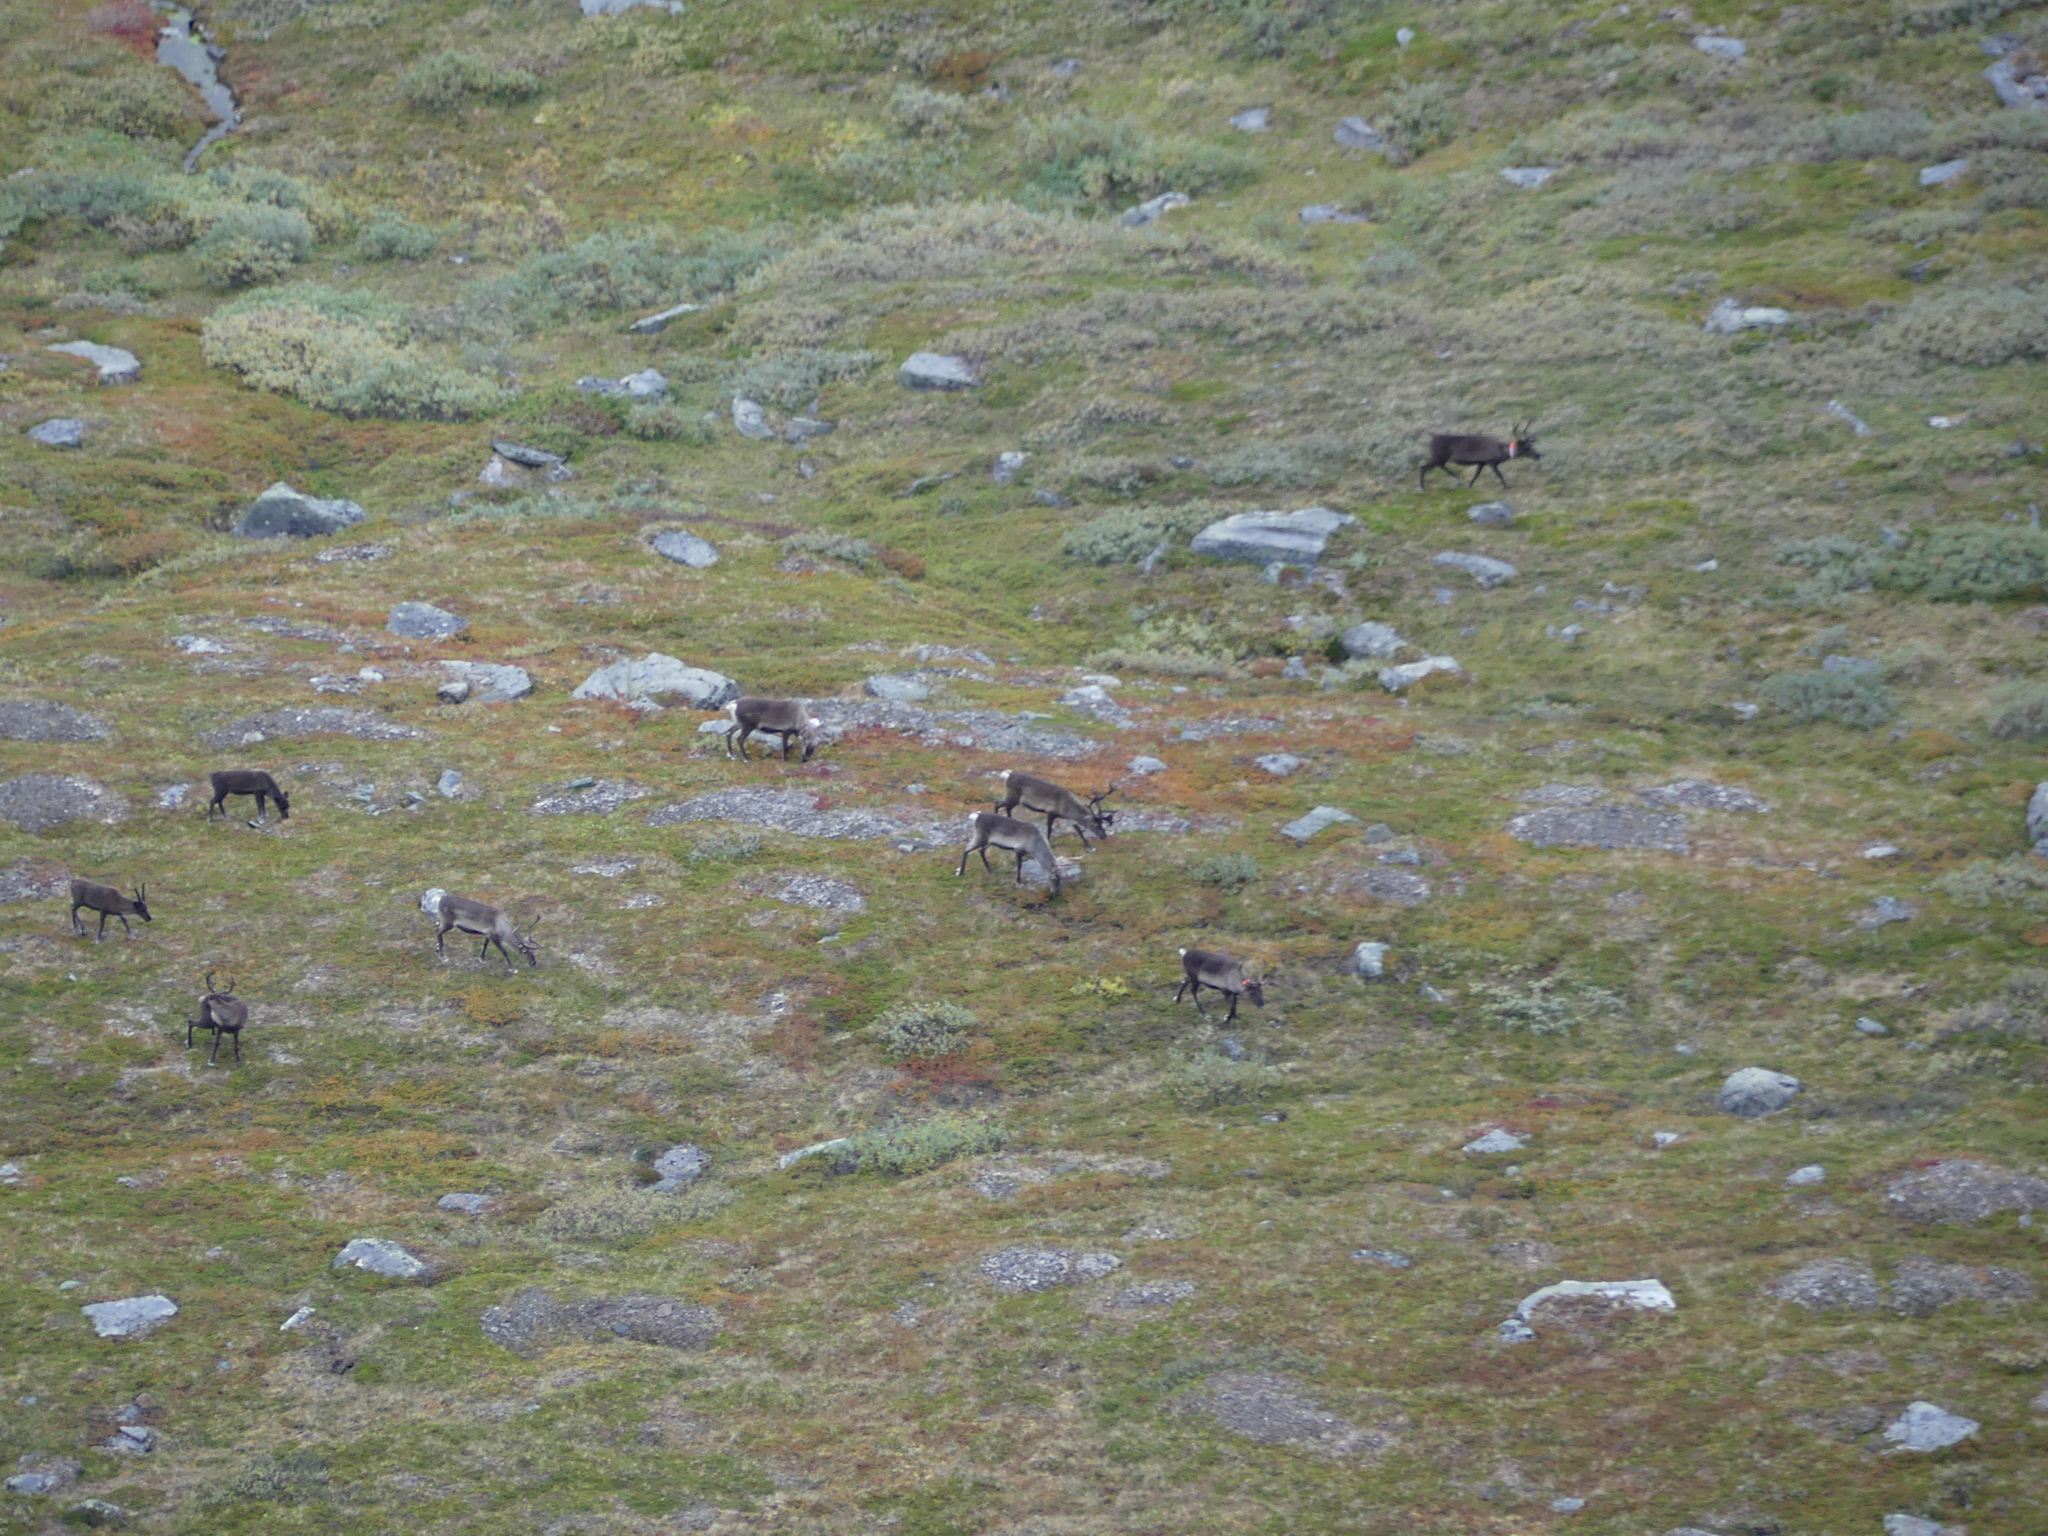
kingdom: Animalia
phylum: Chordata
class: Mammalia
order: Artiodactyla
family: Cervidae
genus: Rangifer
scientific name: Rangifer tarandus
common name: Reindeer
